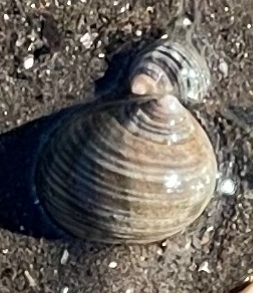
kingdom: Animalia
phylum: Mollusca
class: Gastropoda
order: Littorinimorpha
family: Littorinidae
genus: Littorina
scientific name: Littorina littorea
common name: Common periwinkle
